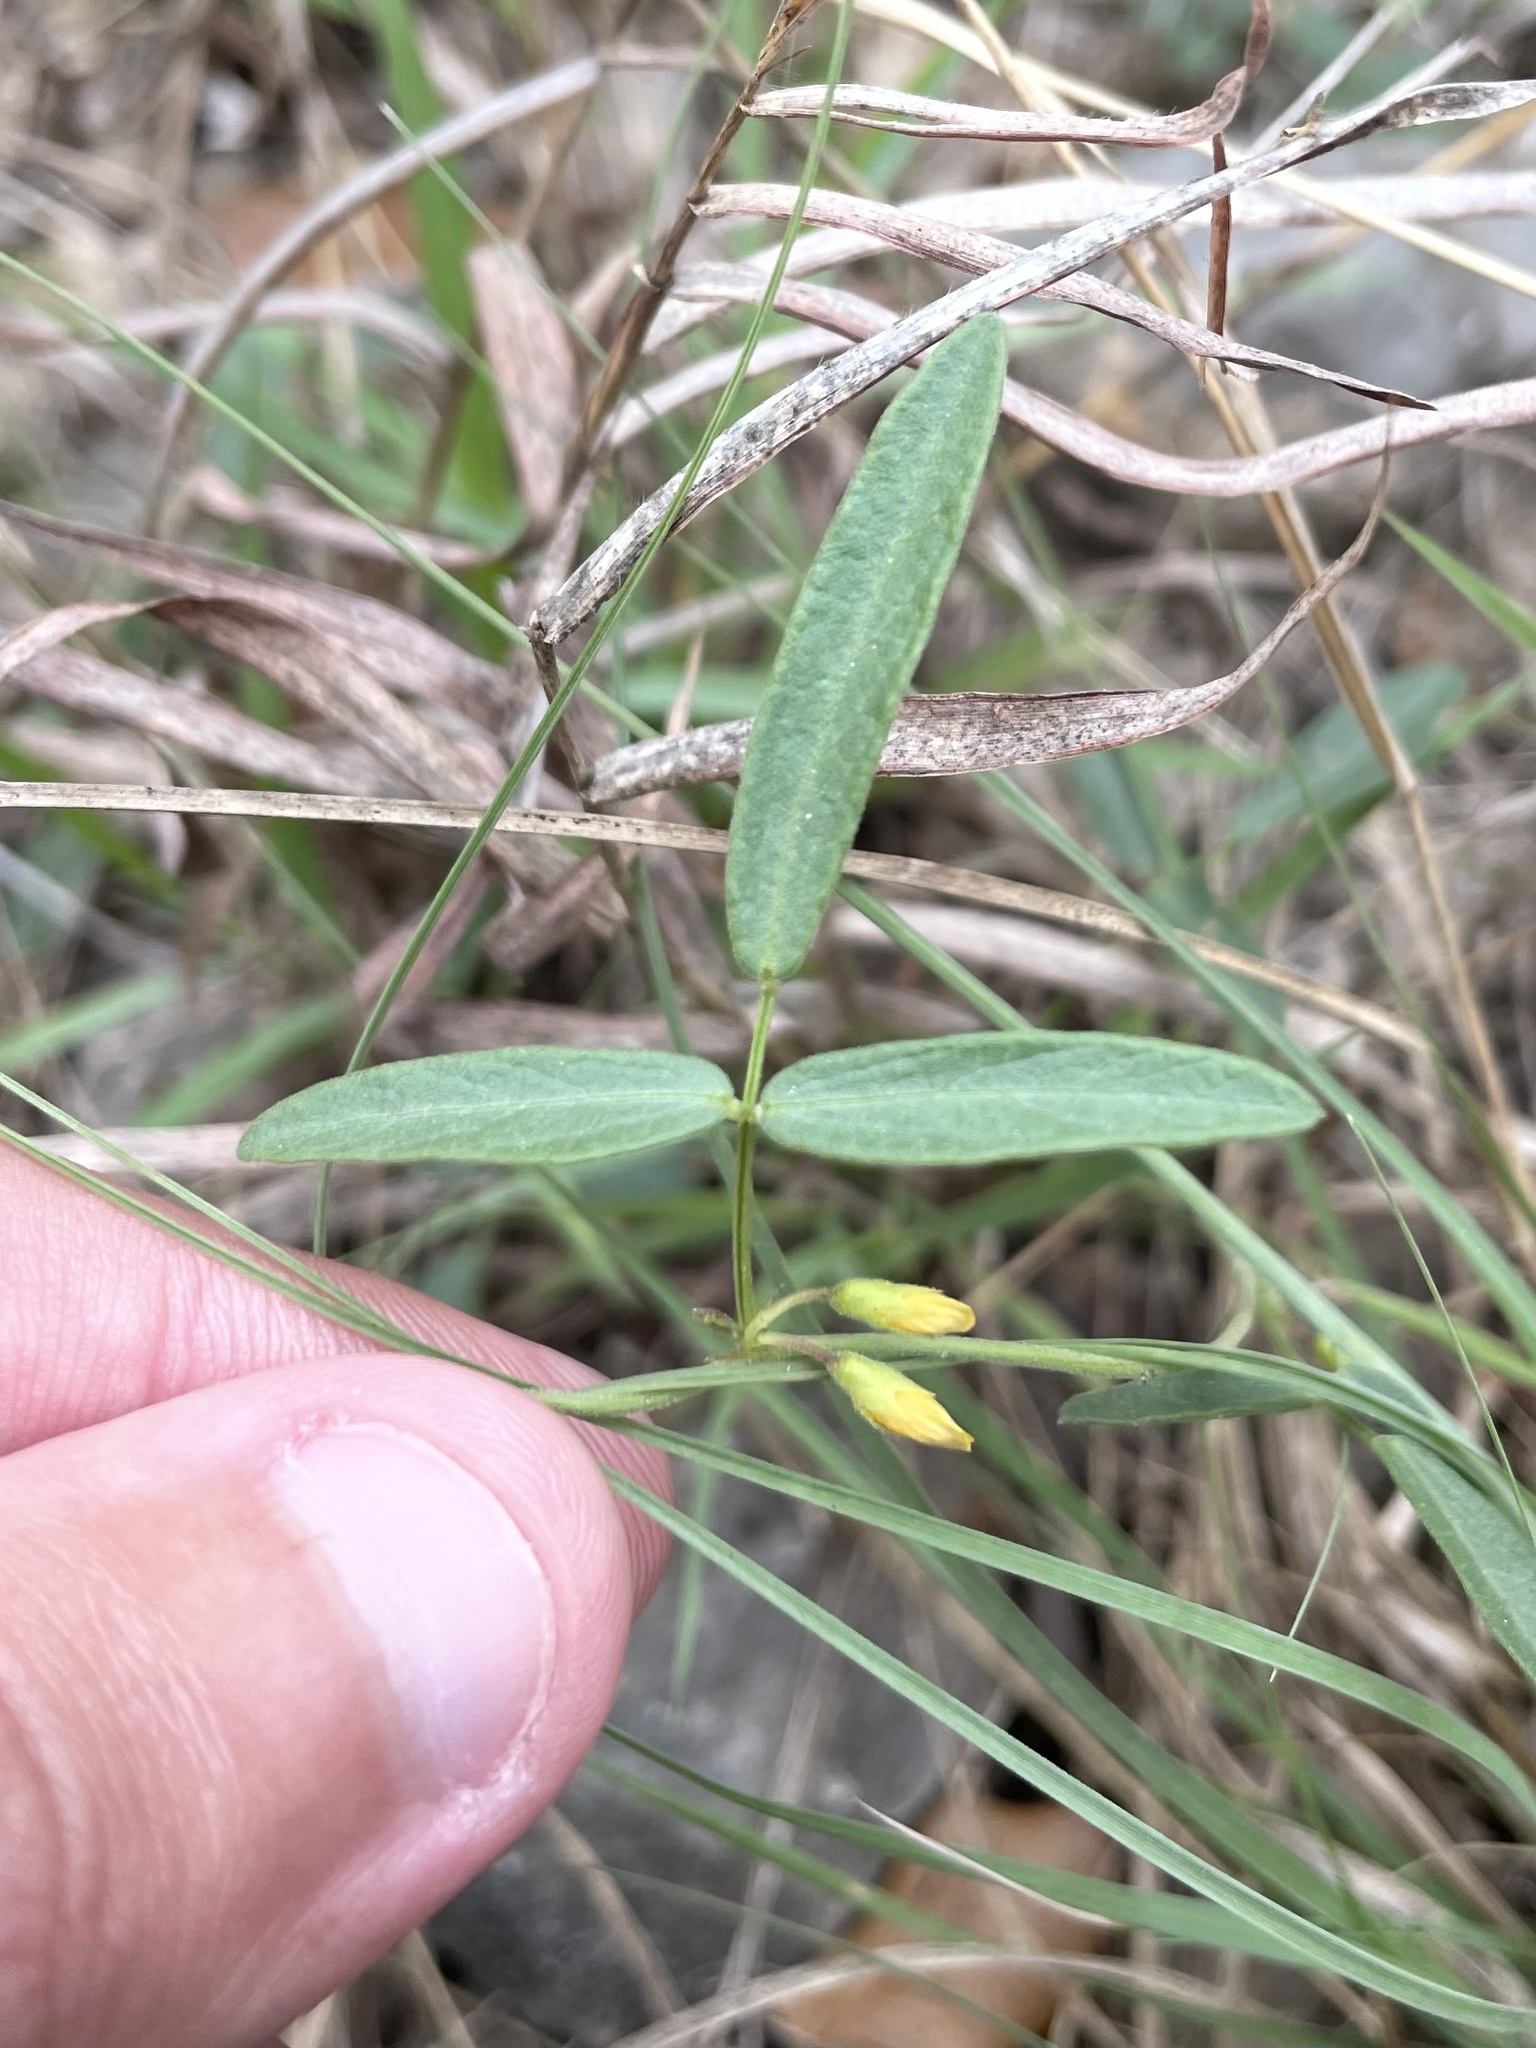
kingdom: Plantae
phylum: Tracheophyta
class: Magnoliopsida
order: Fabales
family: Fabaceae
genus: Rhynchosia
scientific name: Rhynchosia senna
